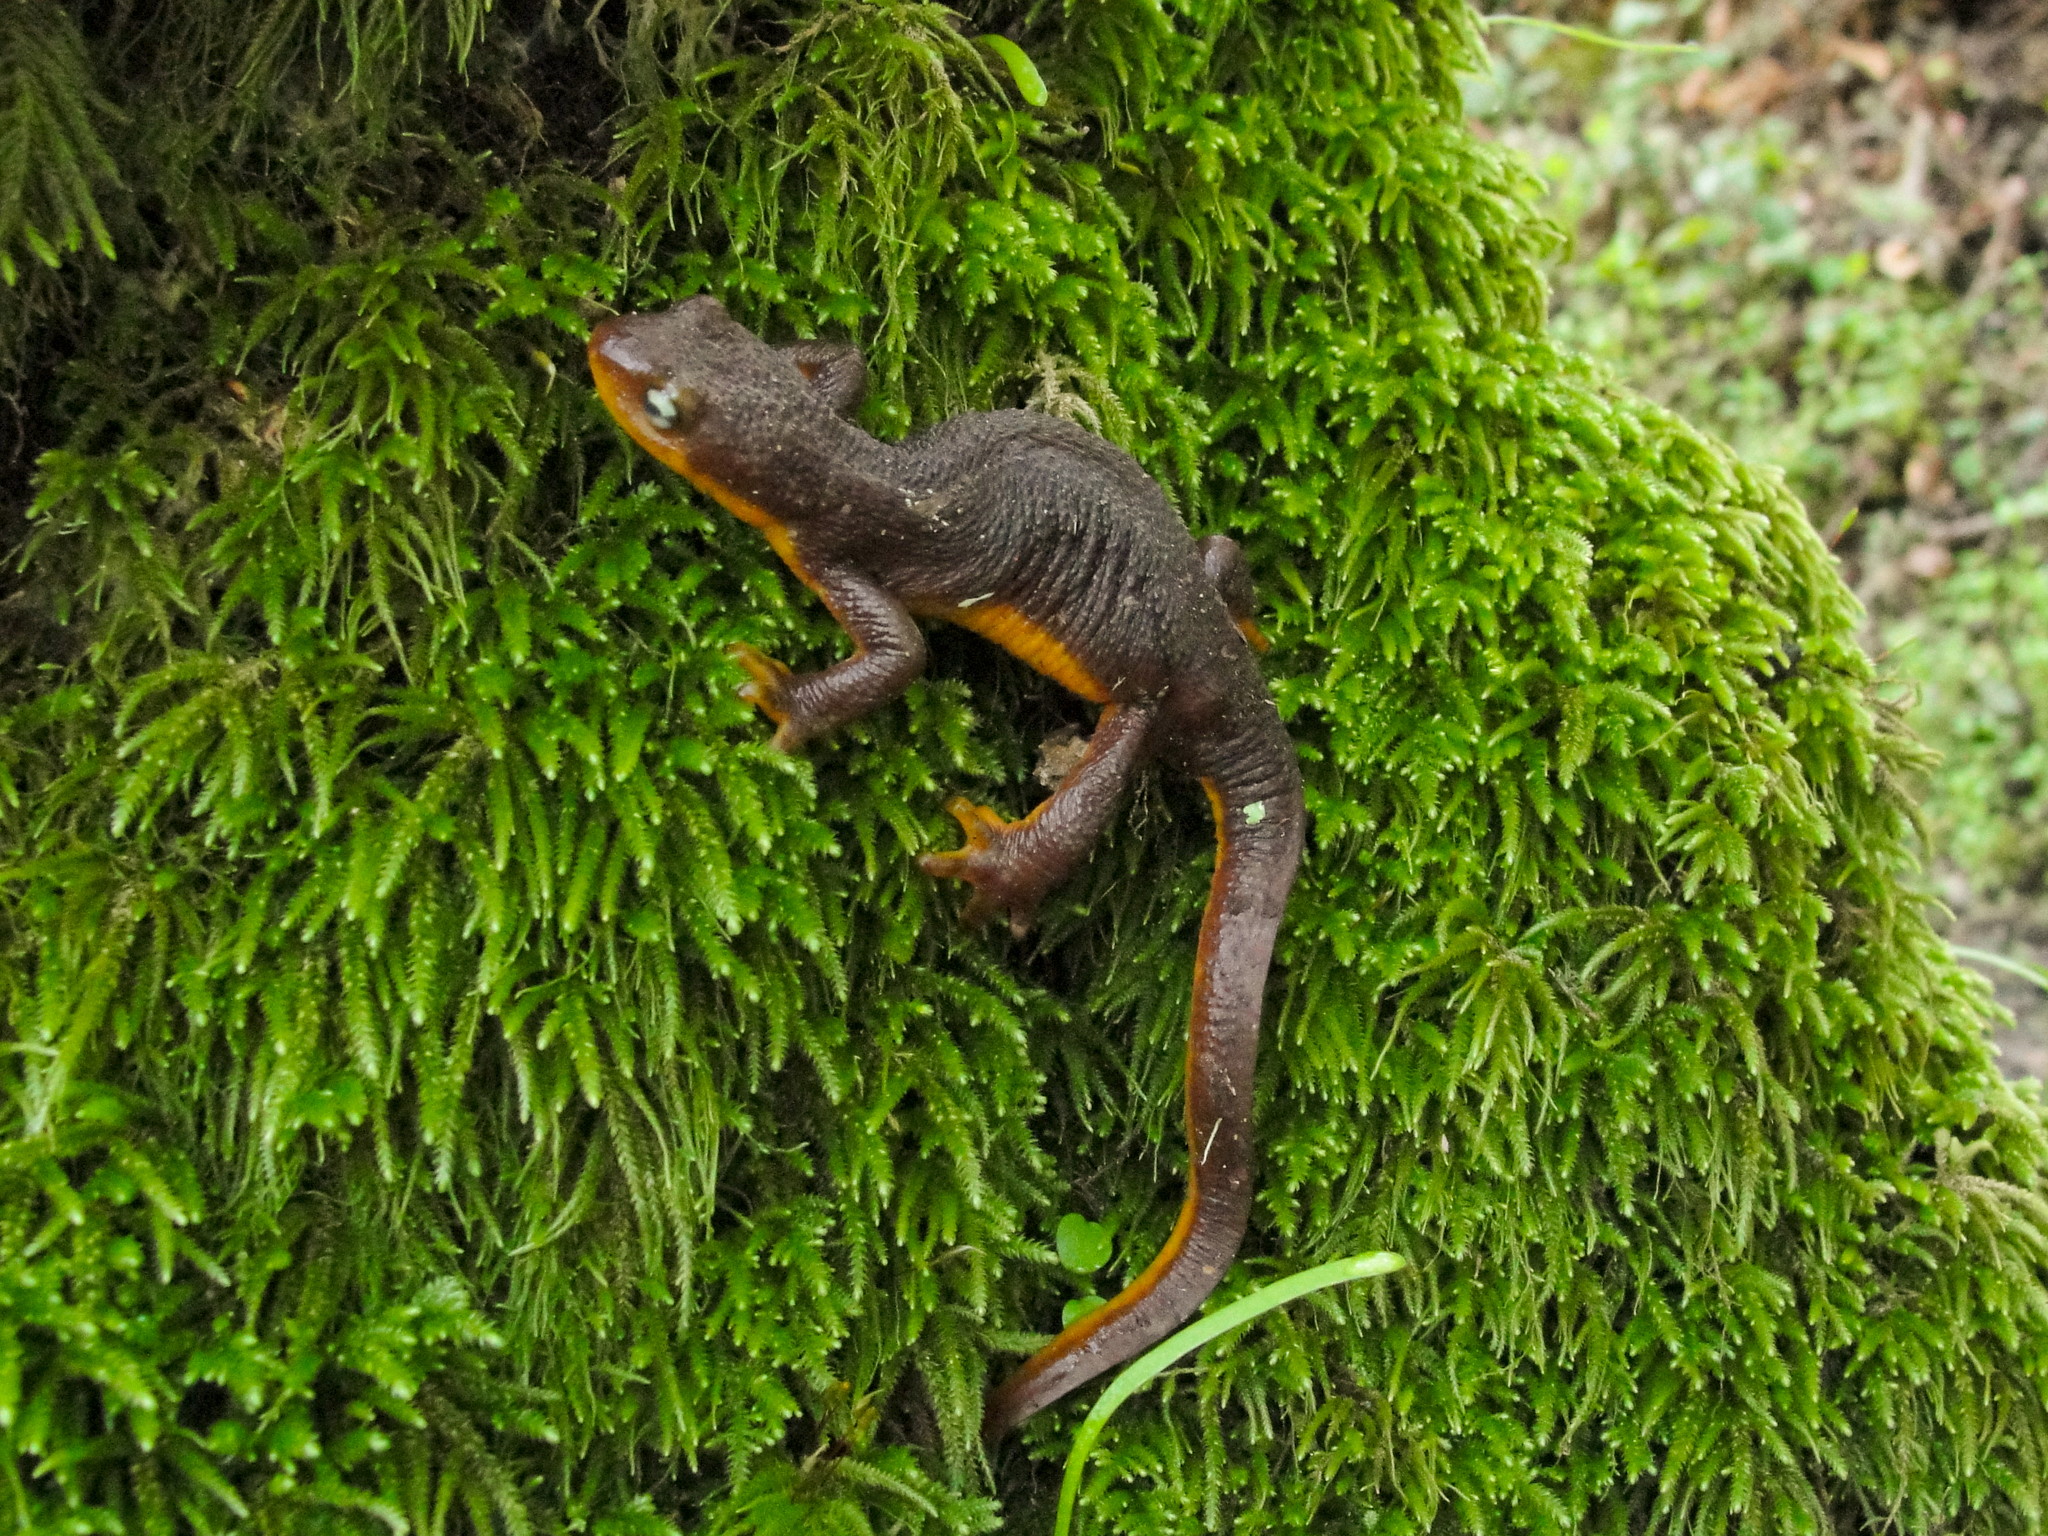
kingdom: Animalia
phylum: Chordata
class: Amphibia
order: Caudata
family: Salamandridae
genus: Taricha
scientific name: Taricha torosa
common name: California newt
